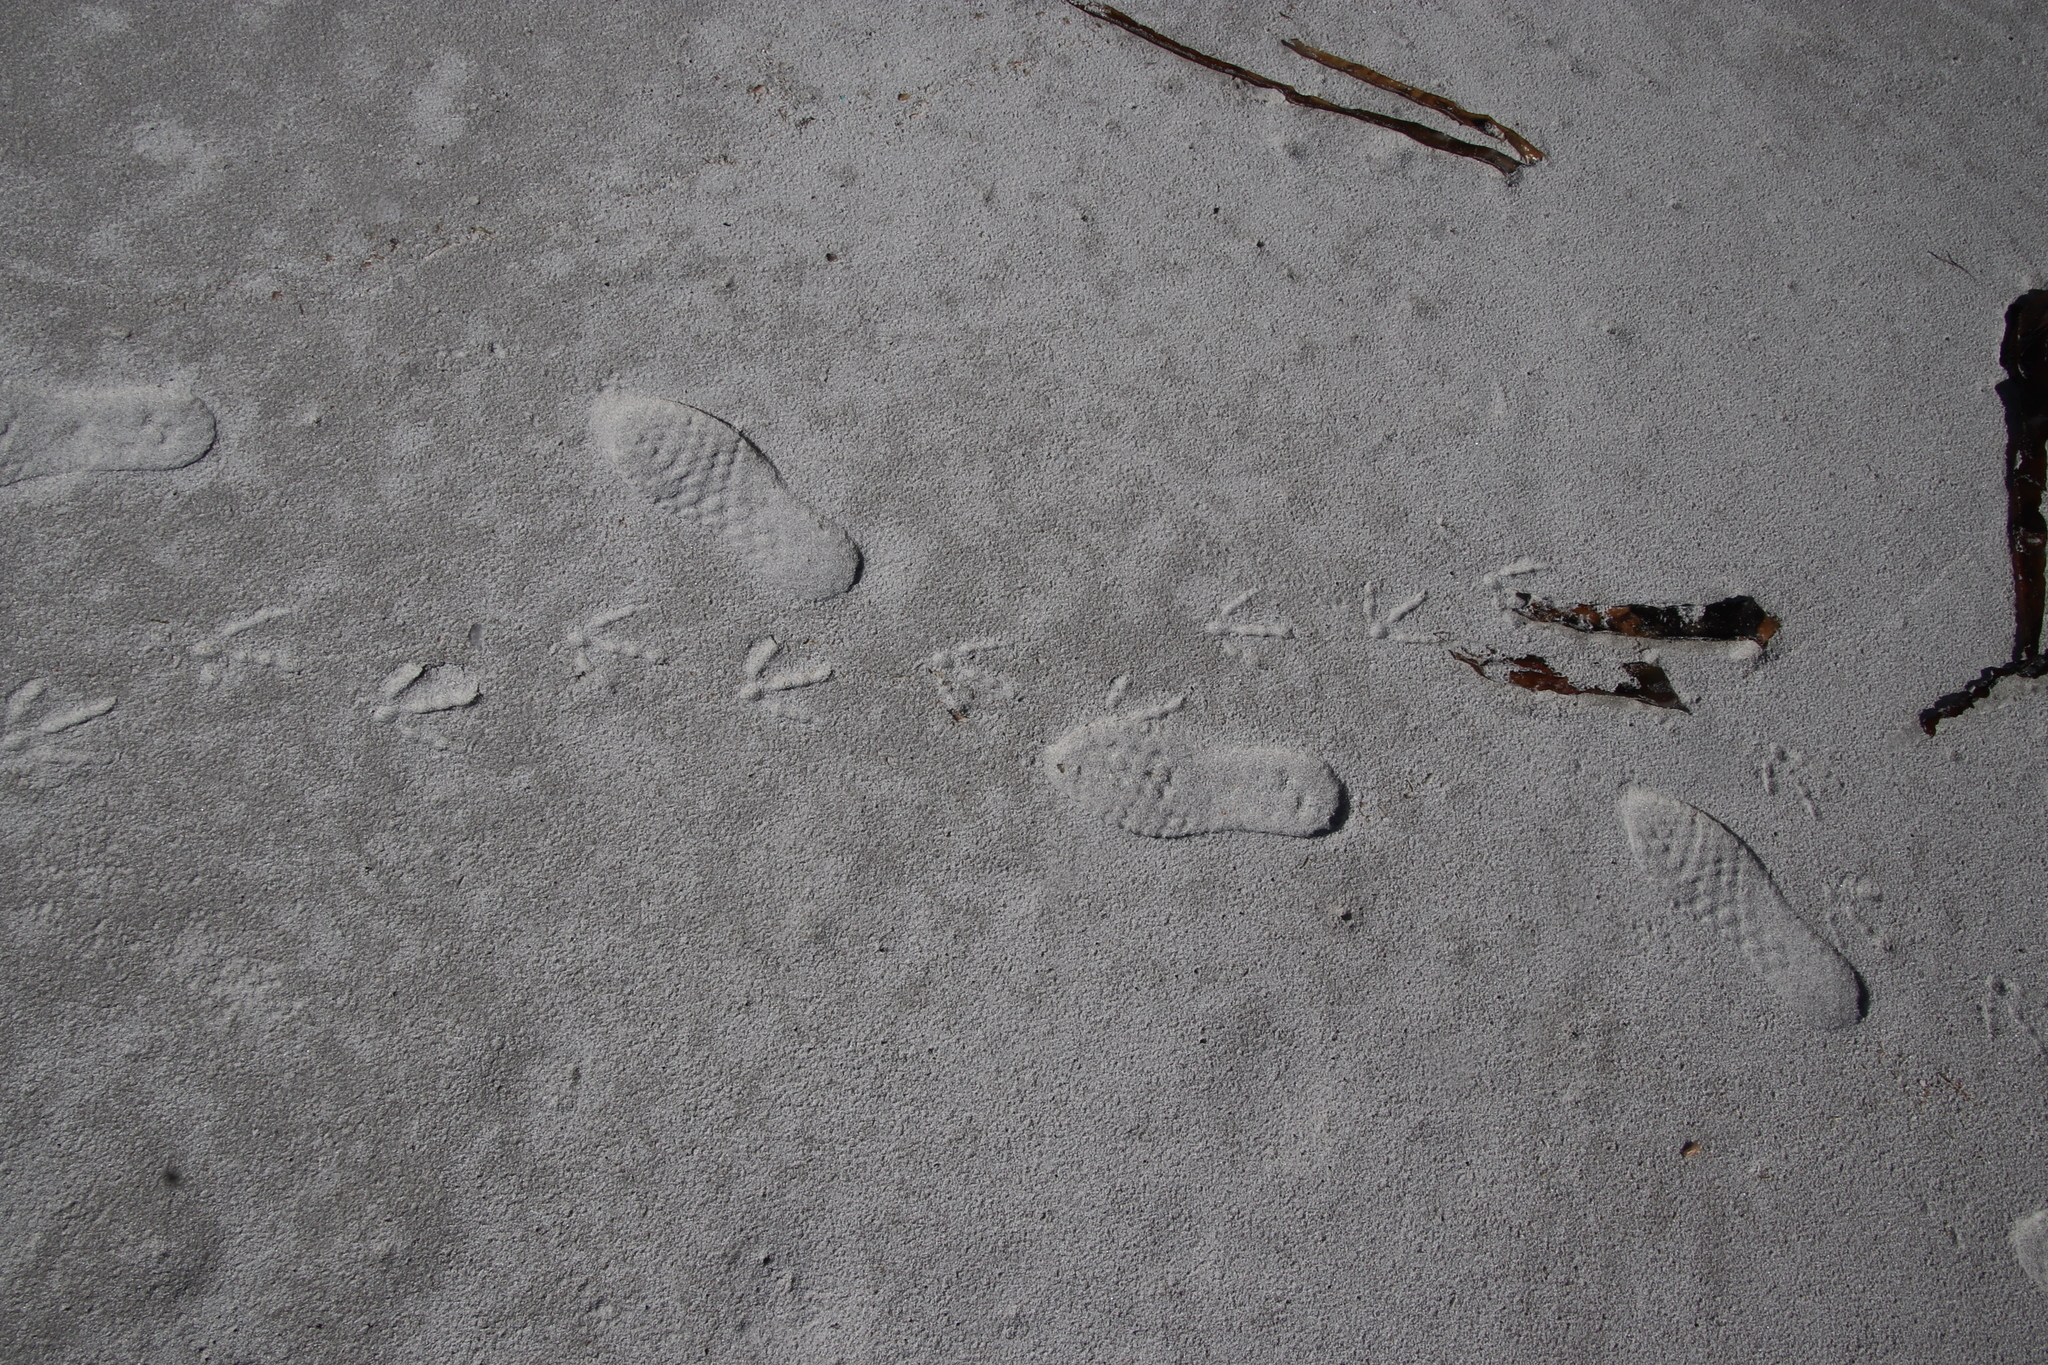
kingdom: Animalia
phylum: Chordata
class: Aves
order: Charadriiformes
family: Laridae
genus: Larus
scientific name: Larus dominicanus
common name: Kelp gull
